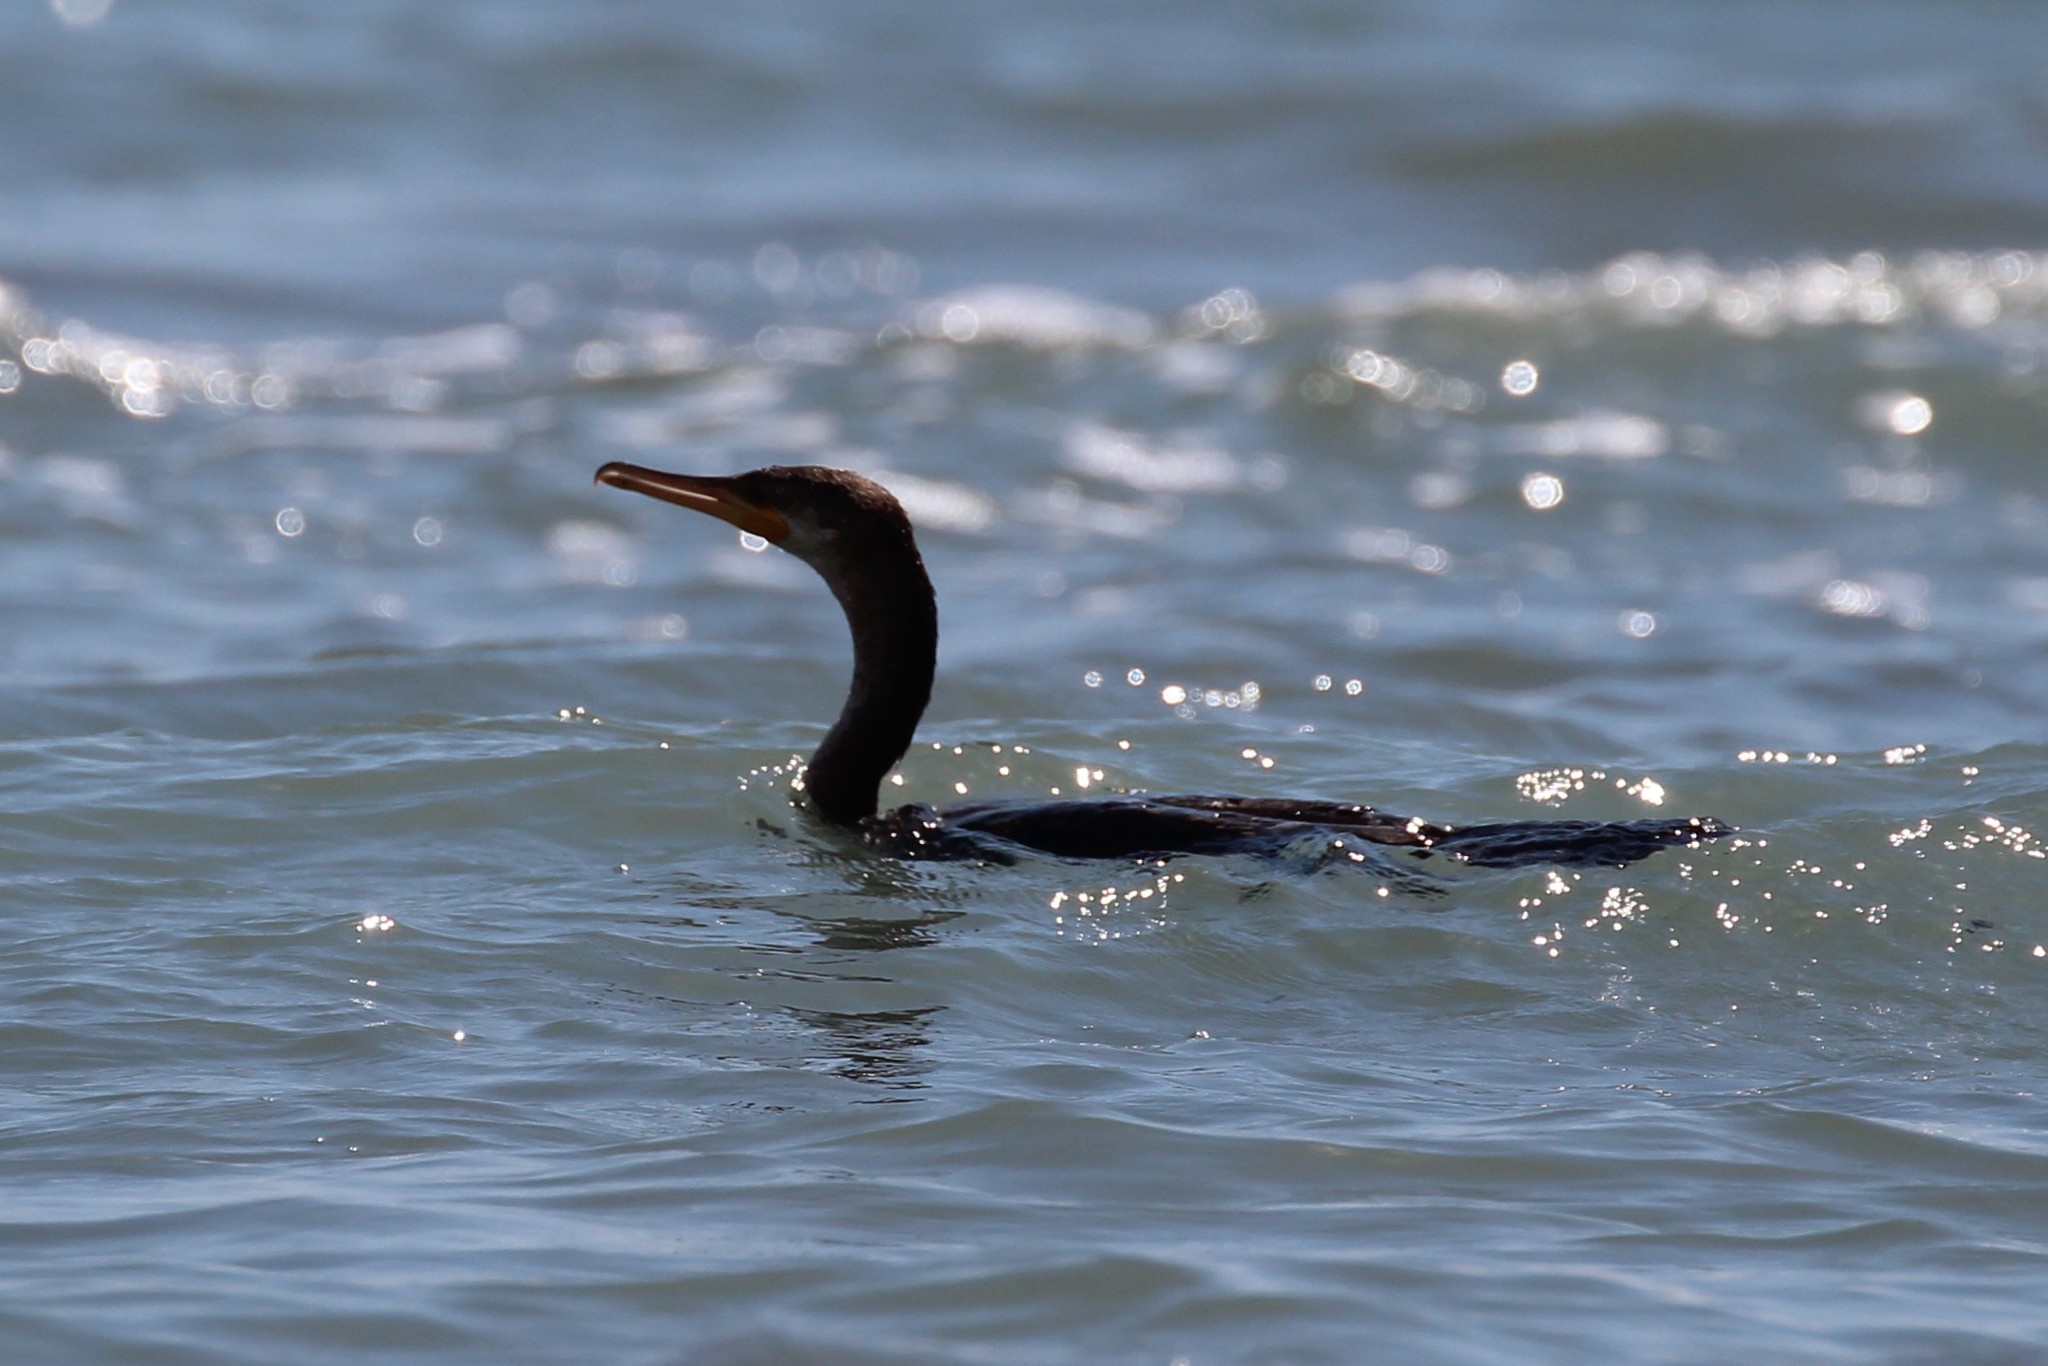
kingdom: Animalia
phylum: Chordata
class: Aves
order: Suliformes
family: Phalacrocoracidae
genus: Phalacrocorax
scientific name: Phalacrocorax brasilianus
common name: Neotropic cormorant
